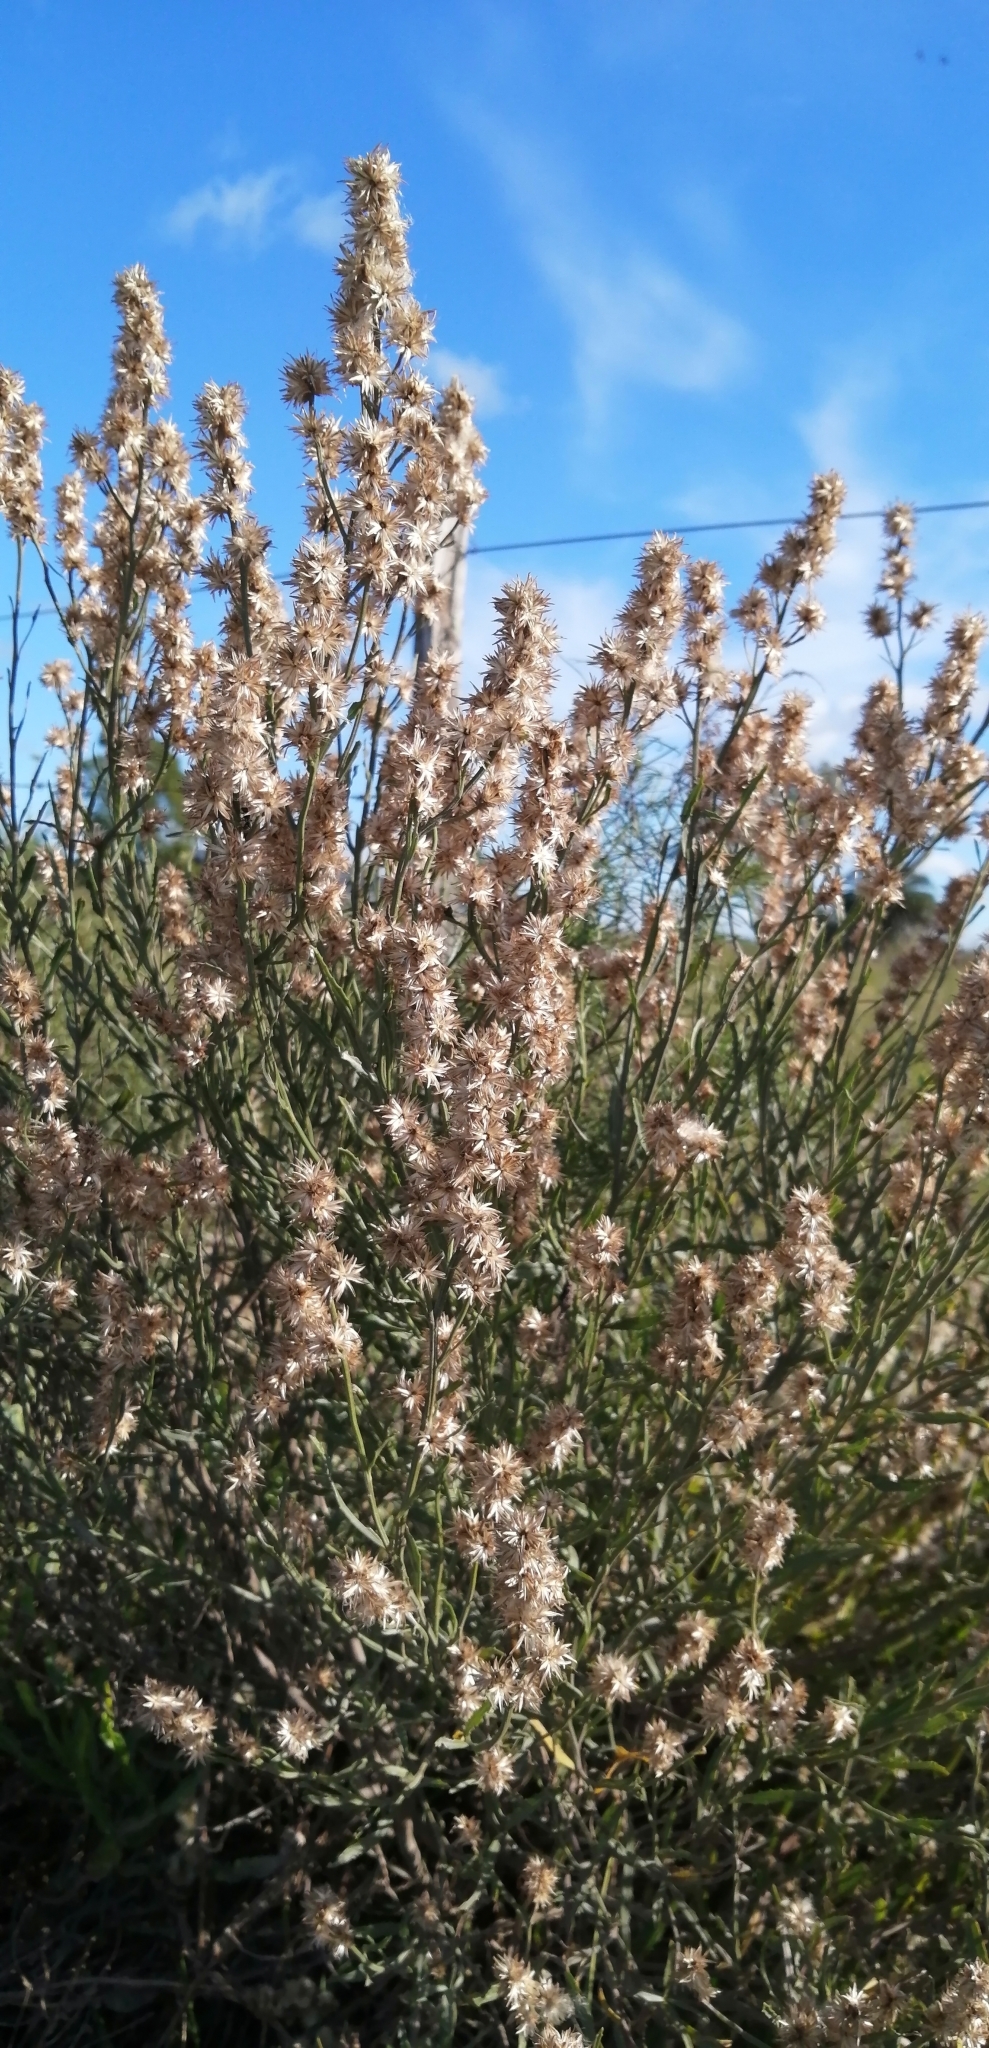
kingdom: Plantae
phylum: Tracheophyta
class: Magnoliopsida
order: Asterales
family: Asteraceae
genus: Baccharis
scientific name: Baccharis spicata
